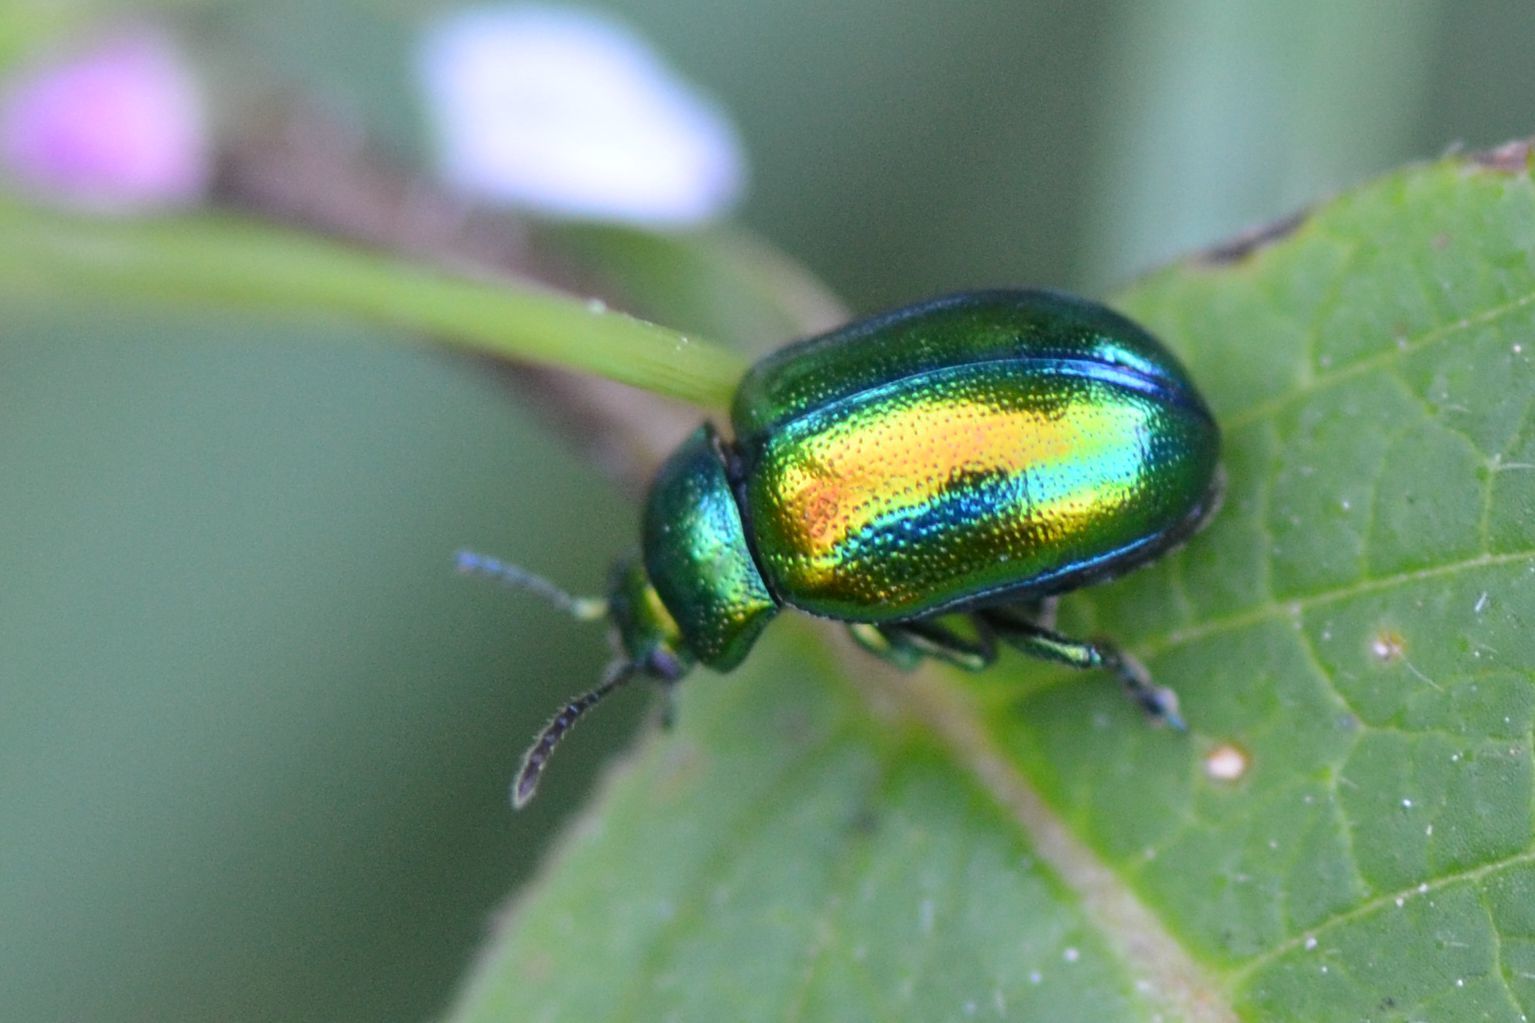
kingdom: Animalia
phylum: Arthropoda
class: Insecta
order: Coleoptera
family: Chrysomelidae
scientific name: Chrysomelidae
